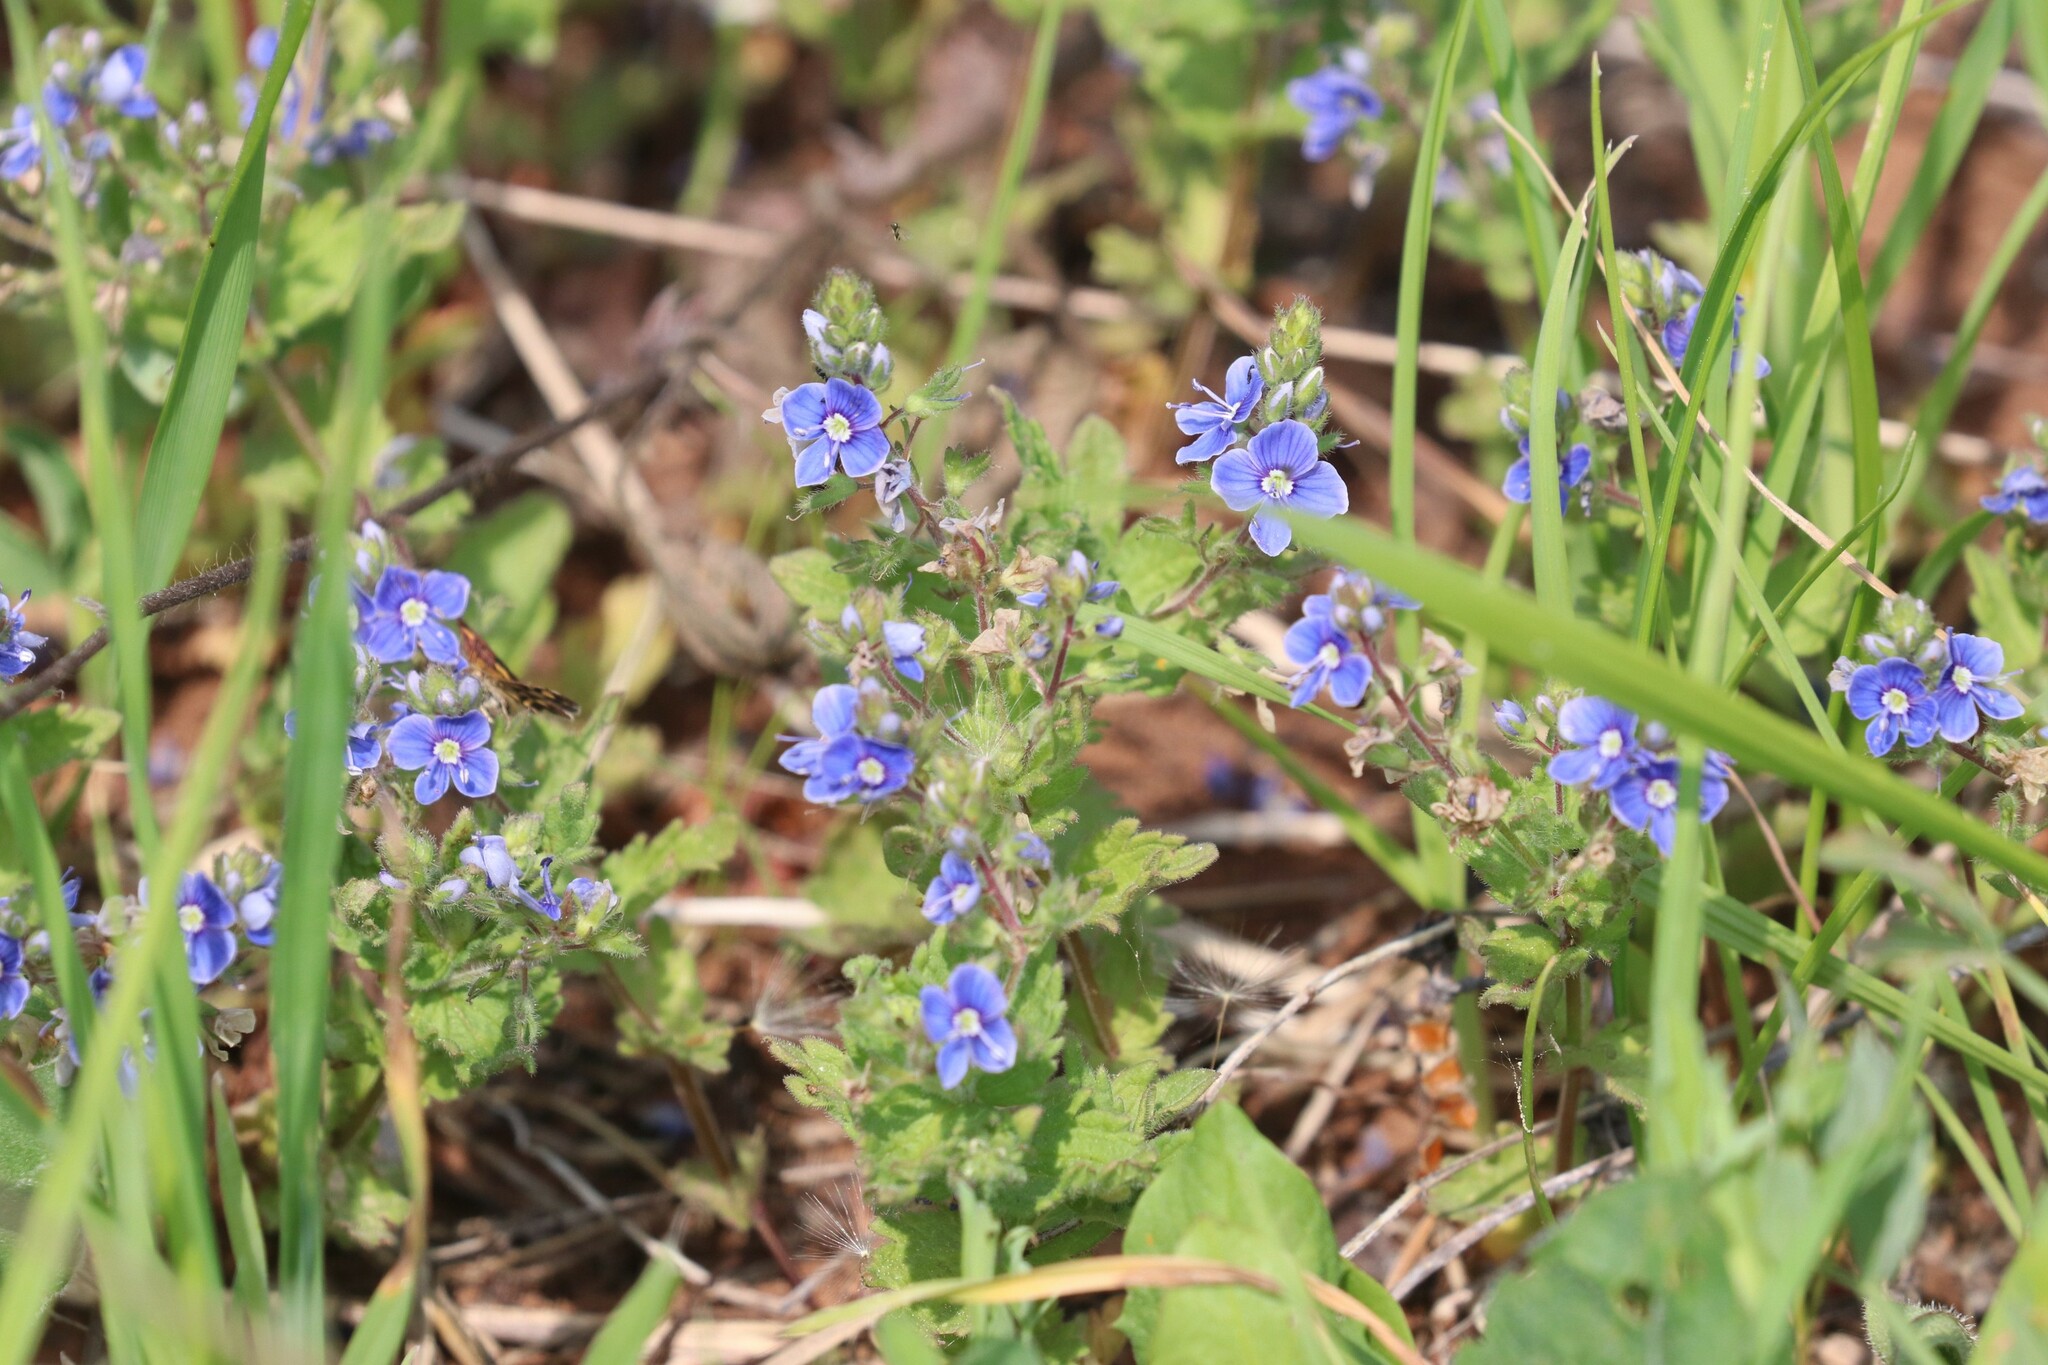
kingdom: Plantae
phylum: Tracheophyta
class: Magnoliopsida
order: Lamiales
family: Plantaginaceae
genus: Veronica
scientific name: Veronica chamaedrys
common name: Germander speedwell
